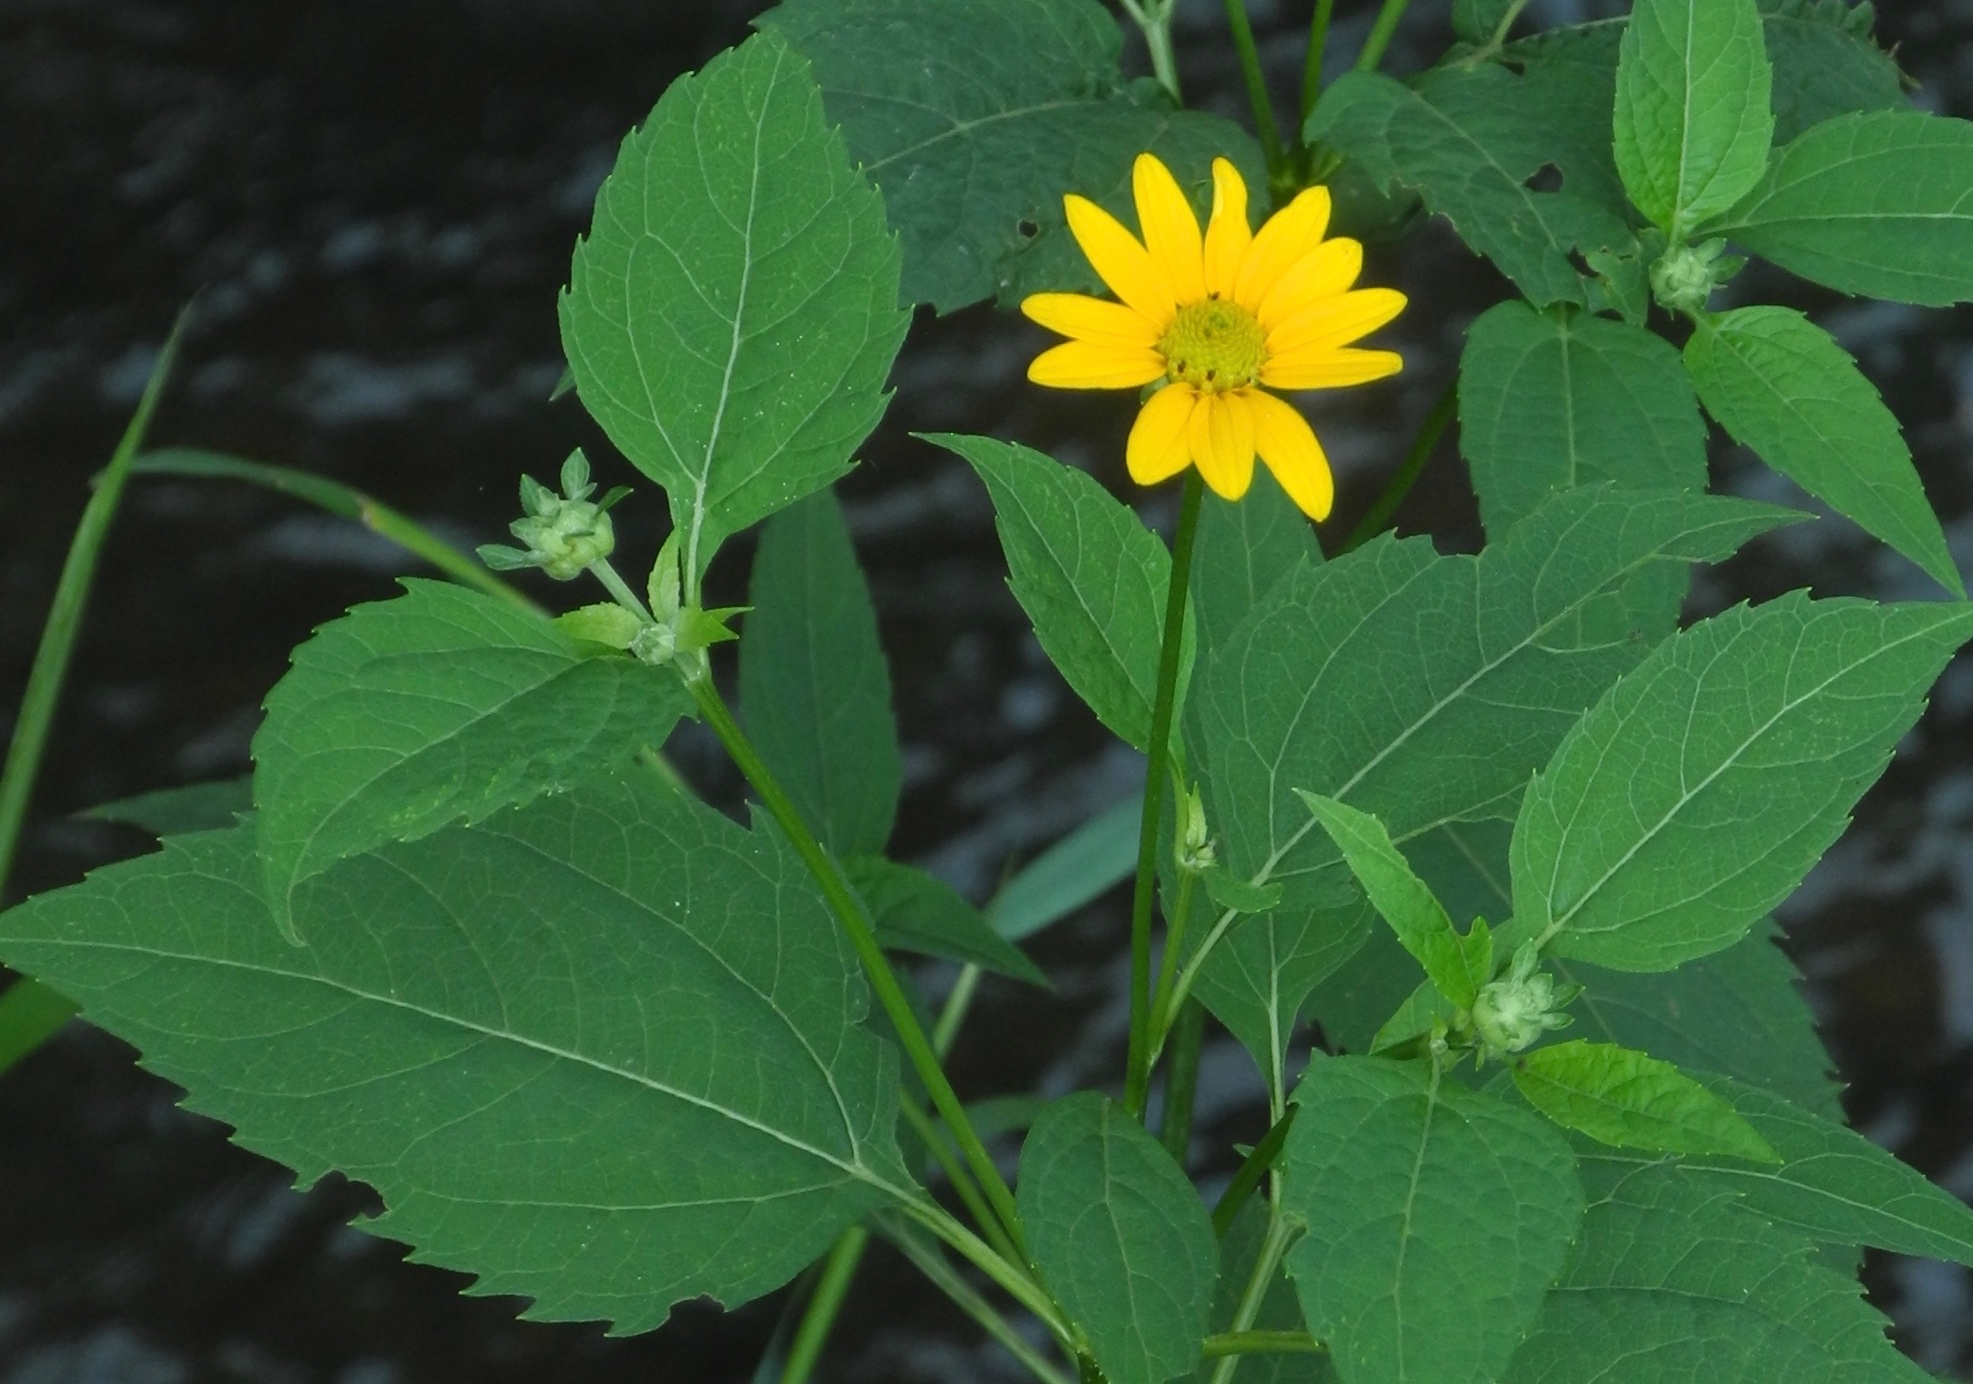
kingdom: Plantae
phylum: Tracheophyta
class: Magnoliopsida
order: Asterales
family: Asteraceae
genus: Heliopsis
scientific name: Heliopsis helianthoides
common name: False sunflower
